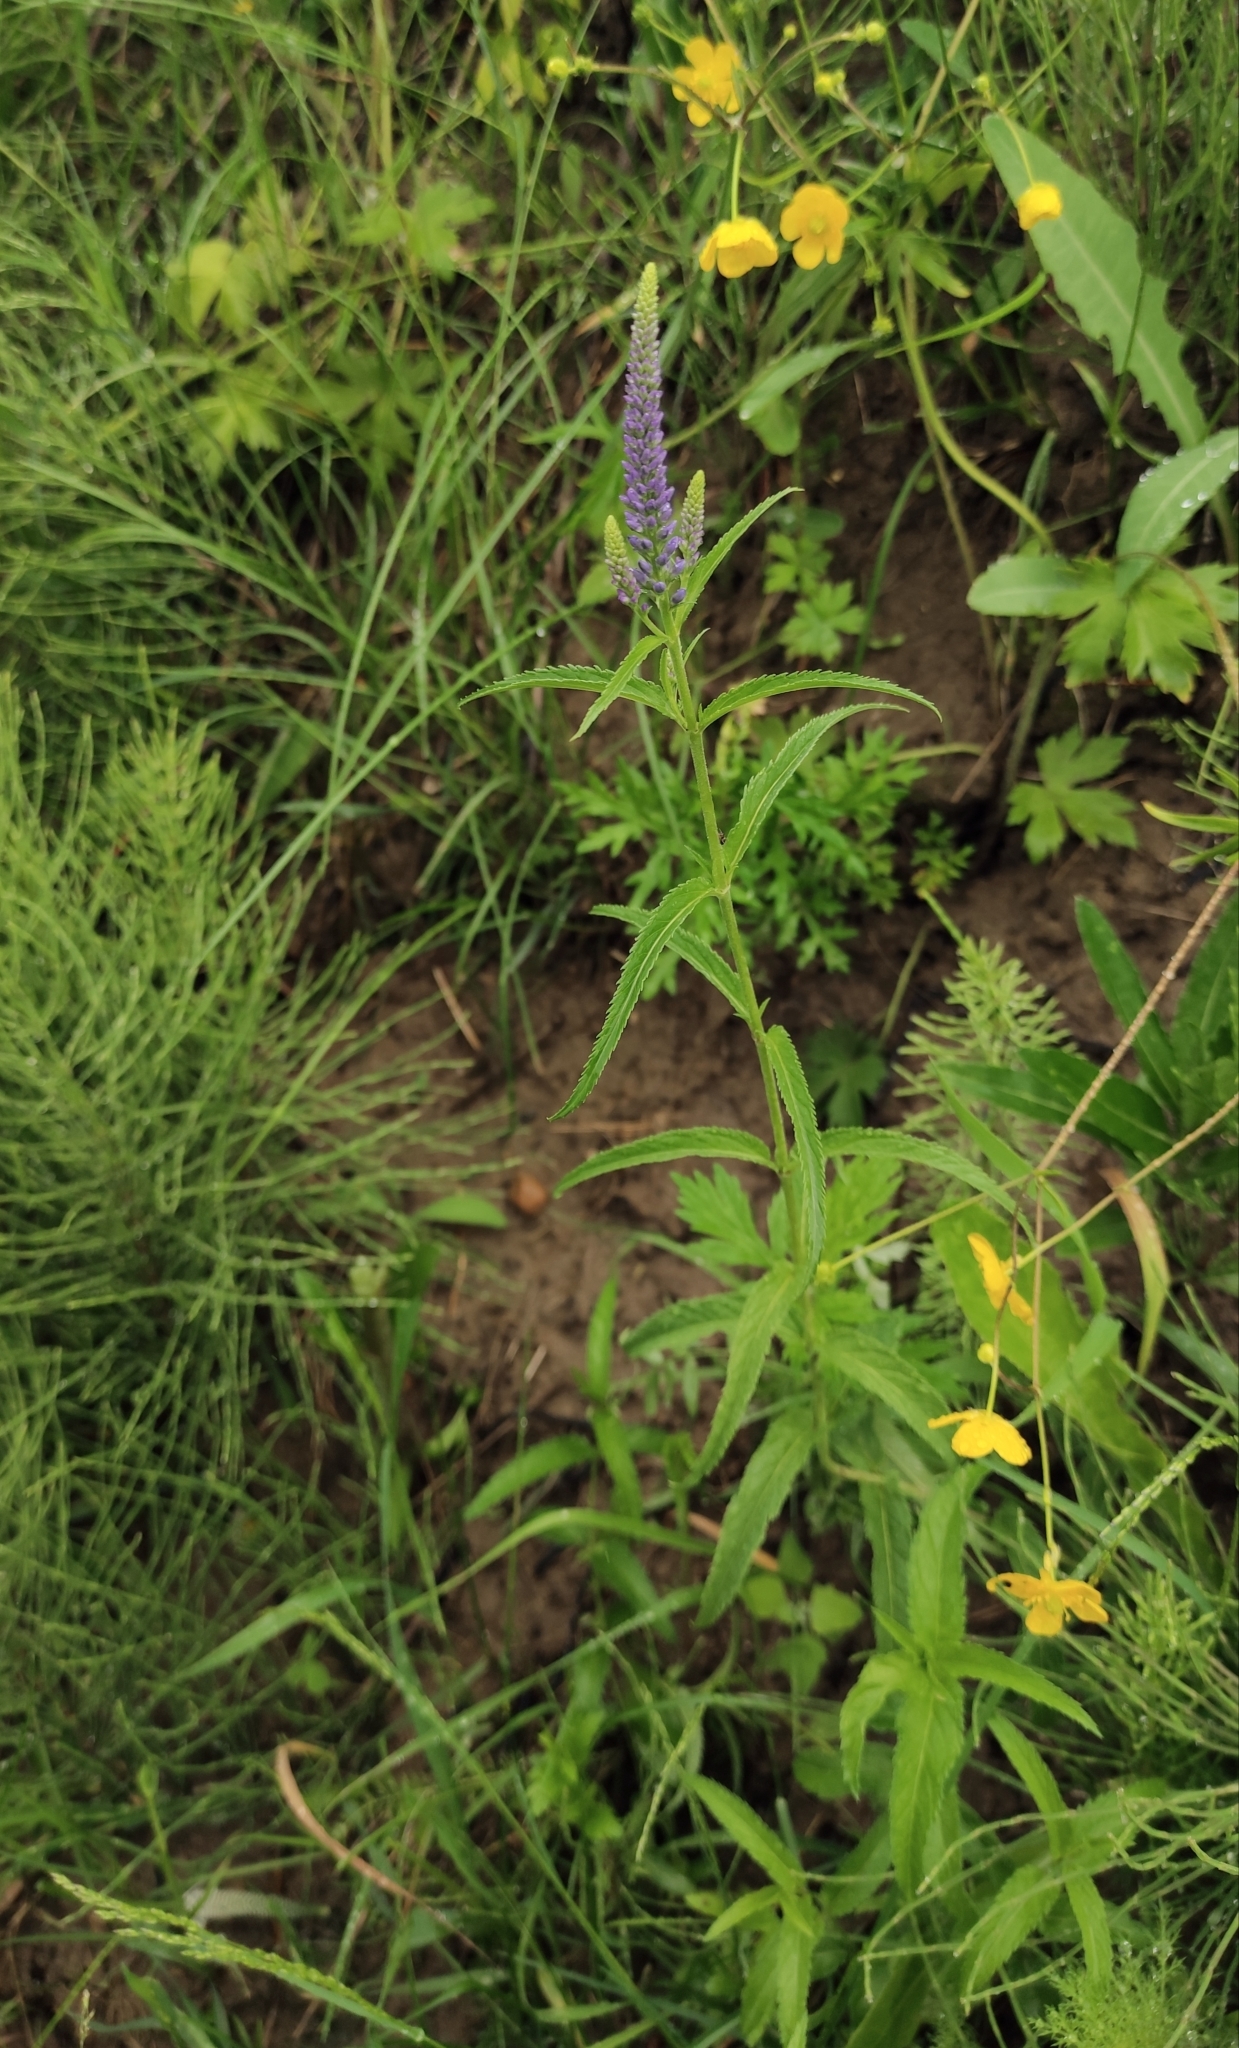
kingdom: Plantae
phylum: Tracheophyta
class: Magnoliopsida
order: Lamiales
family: Plantaginaceae
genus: Veronica
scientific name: Veronica longifolia
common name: Garden speedwell
